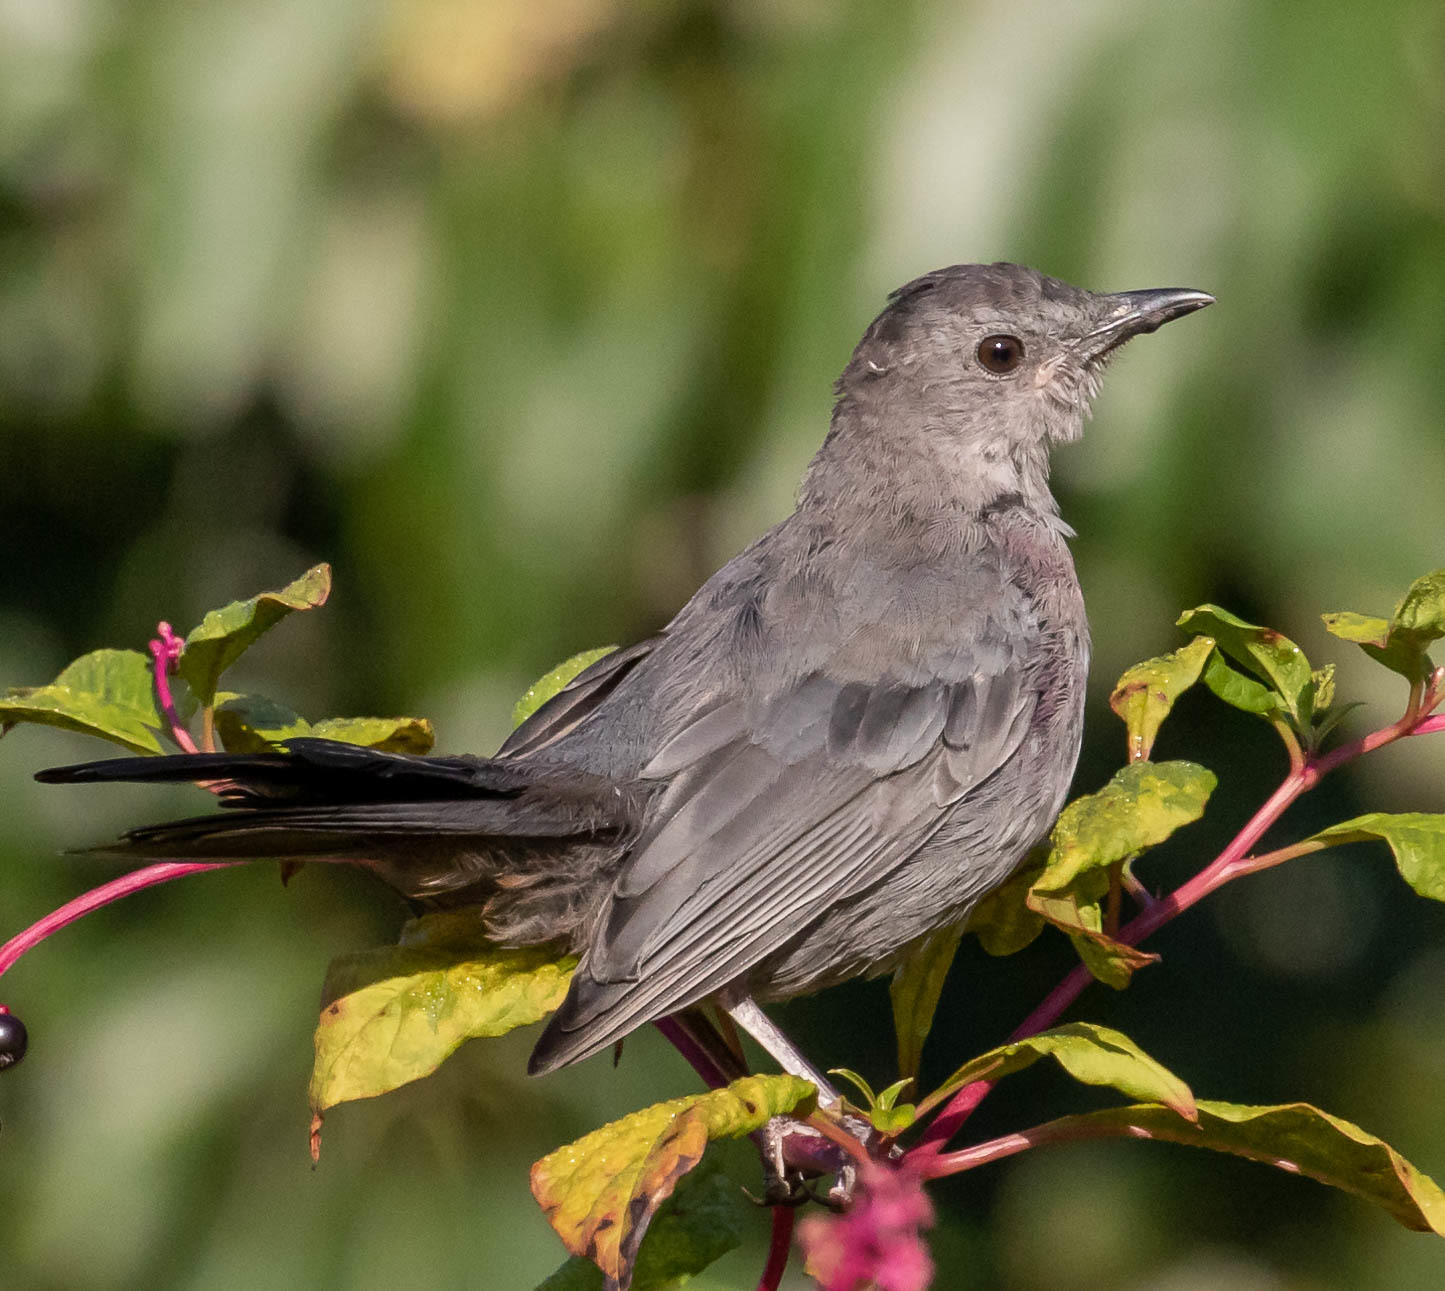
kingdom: Animalia
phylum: Chordata
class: Aves
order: Passeriformes
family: Mimidae
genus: Dumetella
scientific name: Dumetella carolinensis
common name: Gray catbird
